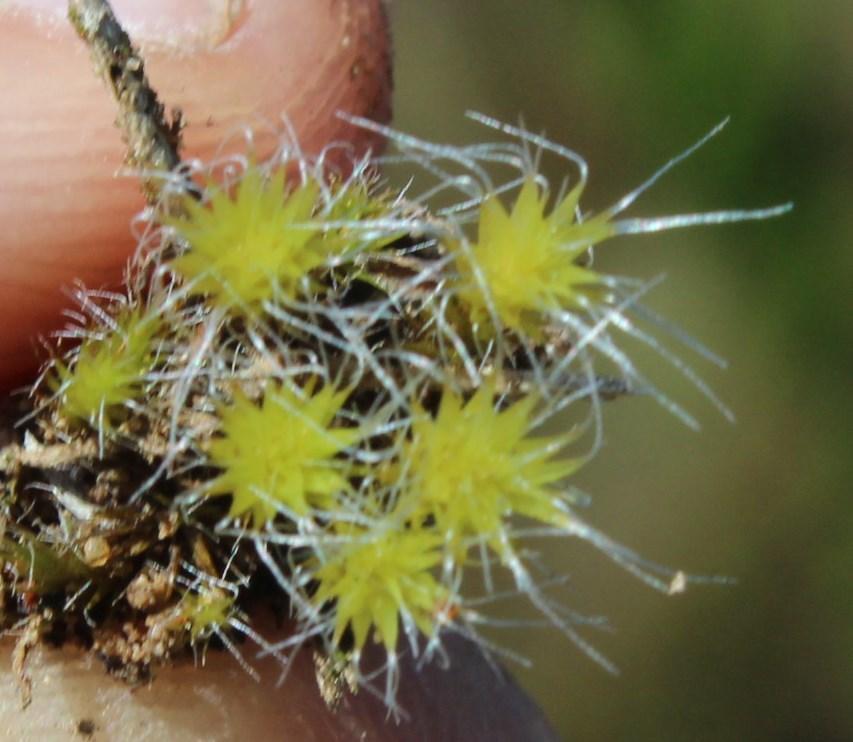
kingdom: Plantae
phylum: Bryophyta
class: Bryopsida
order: Dicranales
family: Leucobryaceae
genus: Campylopus
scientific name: Campylopus introflexus
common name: Heath star moss
